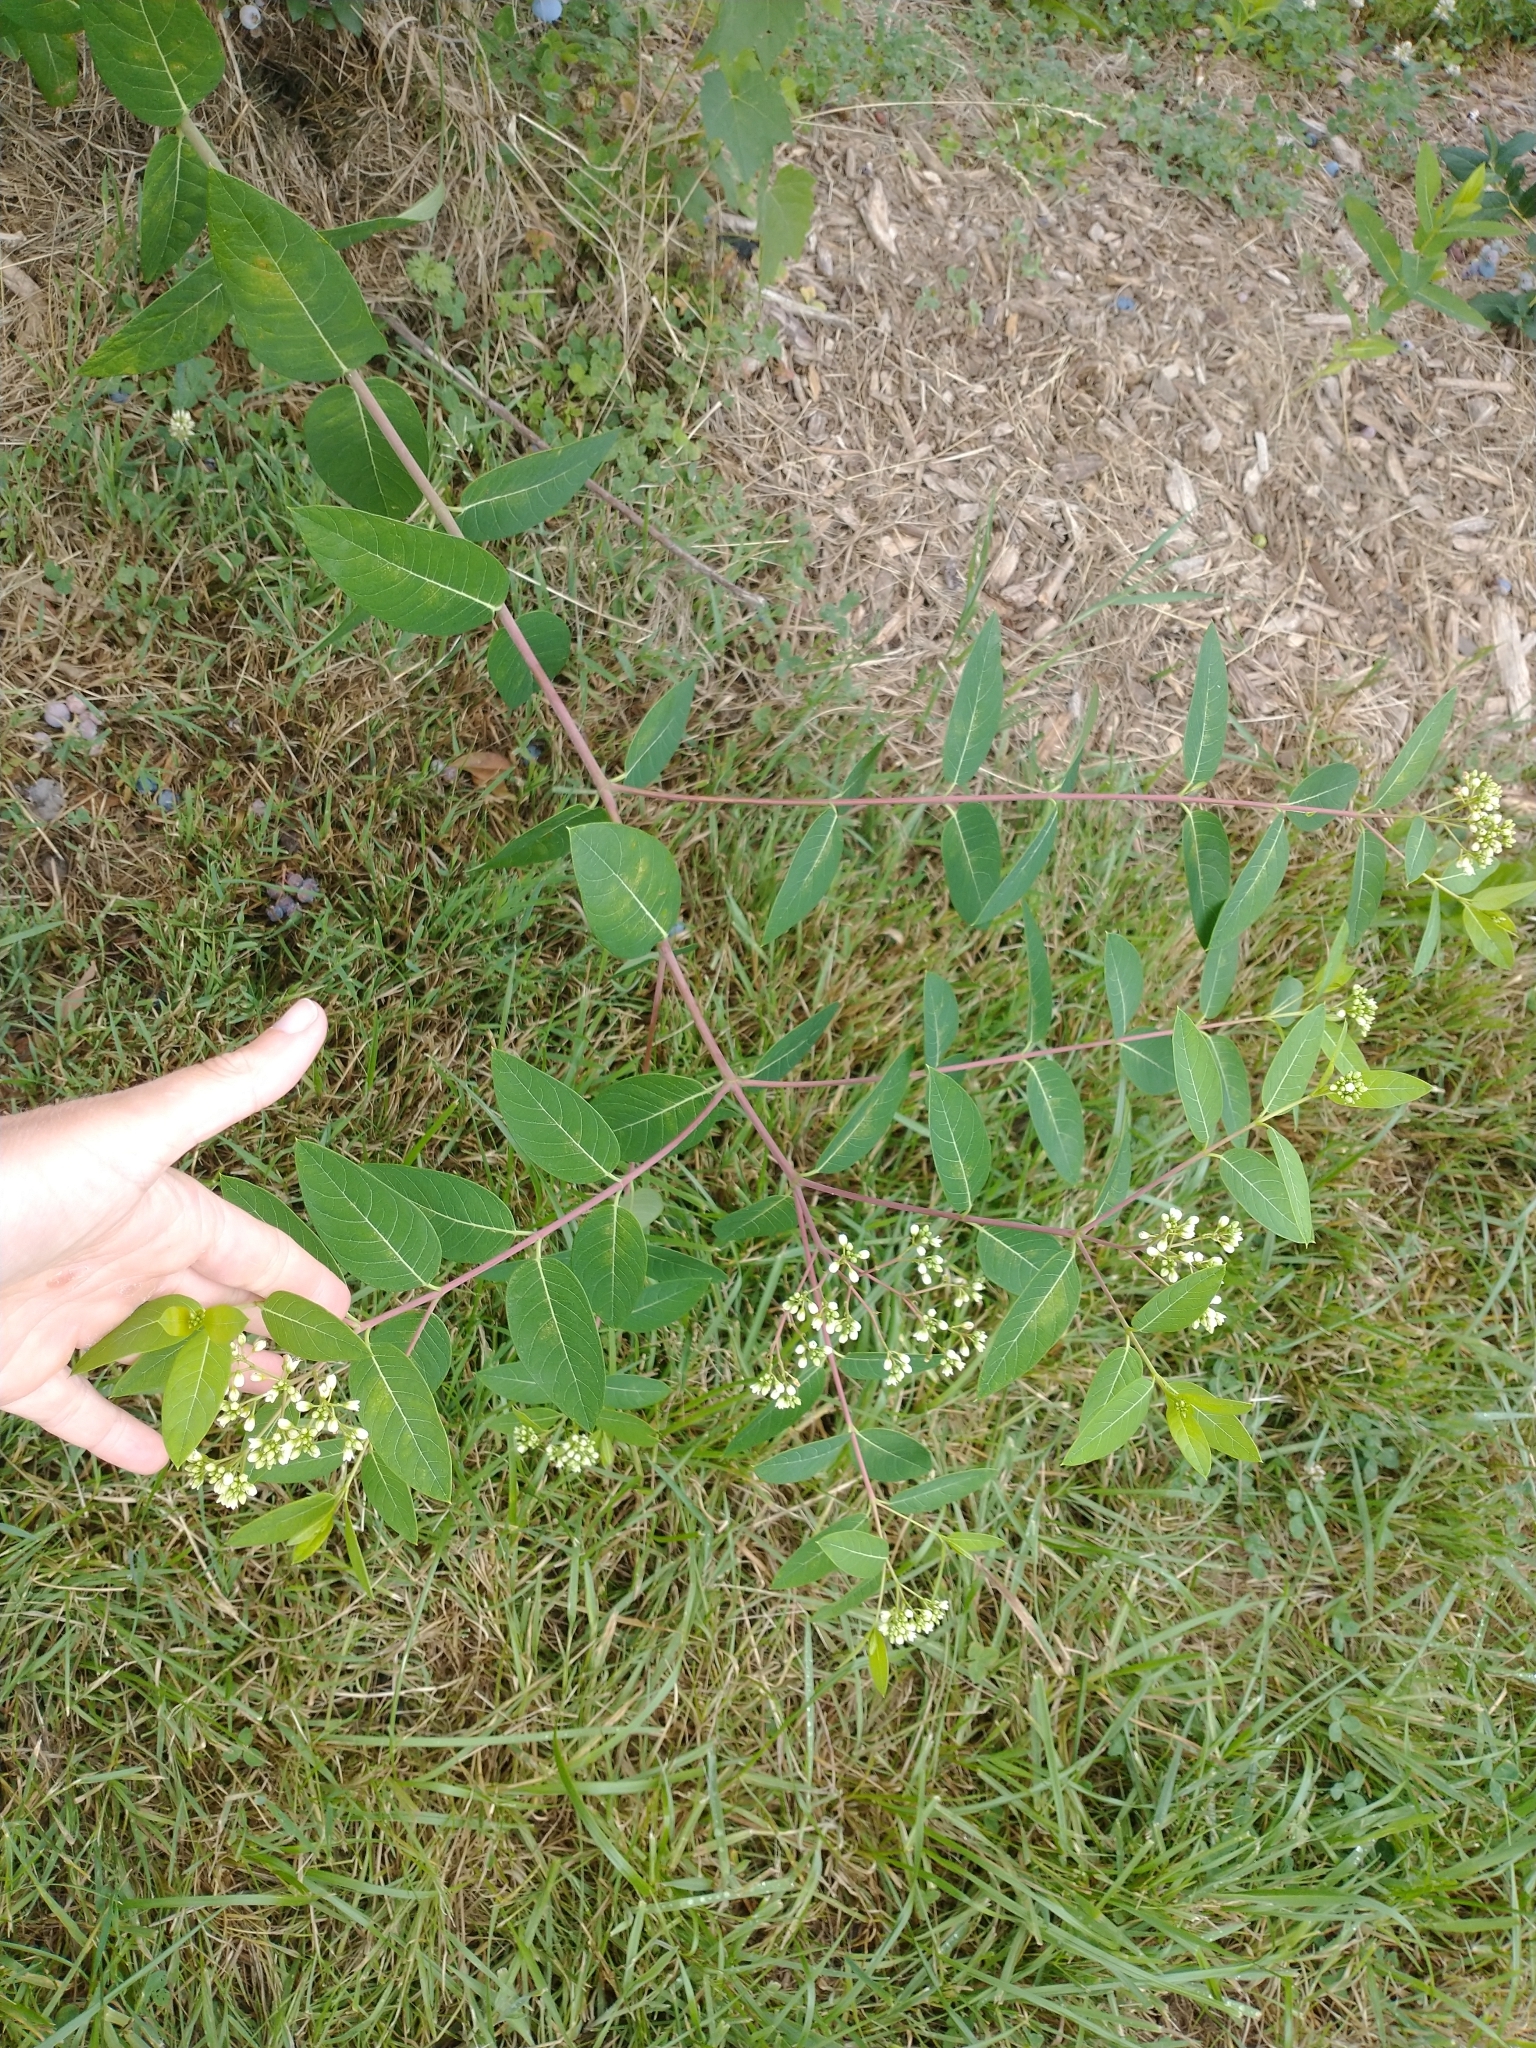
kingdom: Plantae
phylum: Tracheophyta
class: Magnoliopsida
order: Gentianales
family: Apocynaceae
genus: Apocynum
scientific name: Apocynum cannabinum
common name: Hemp dogbane
